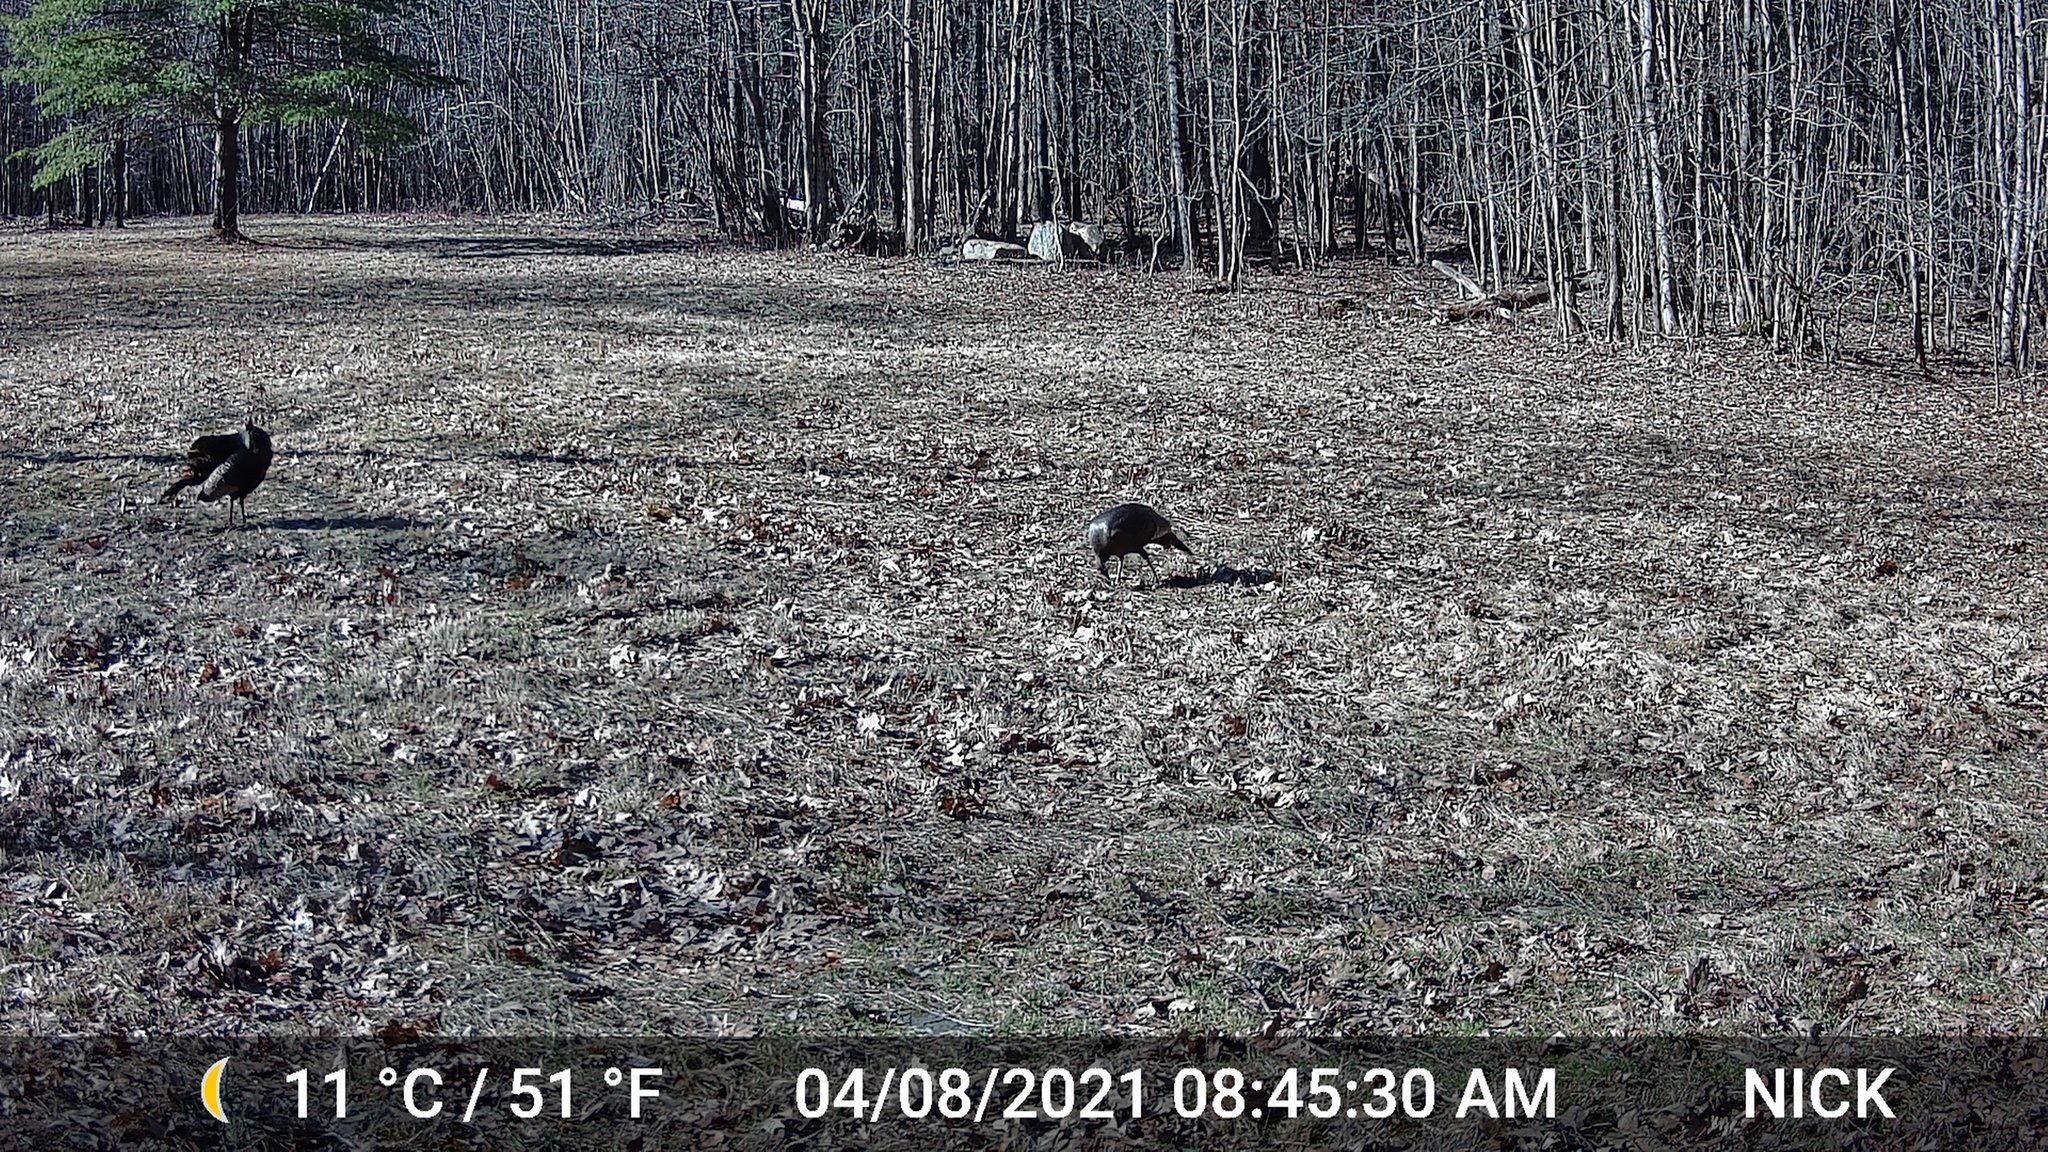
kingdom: Animalia
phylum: Chordata
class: Aves
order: Galliformes
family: Phasianidae
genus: Meleagris
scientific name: Meleagris gallopavo
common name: Wild turkey
